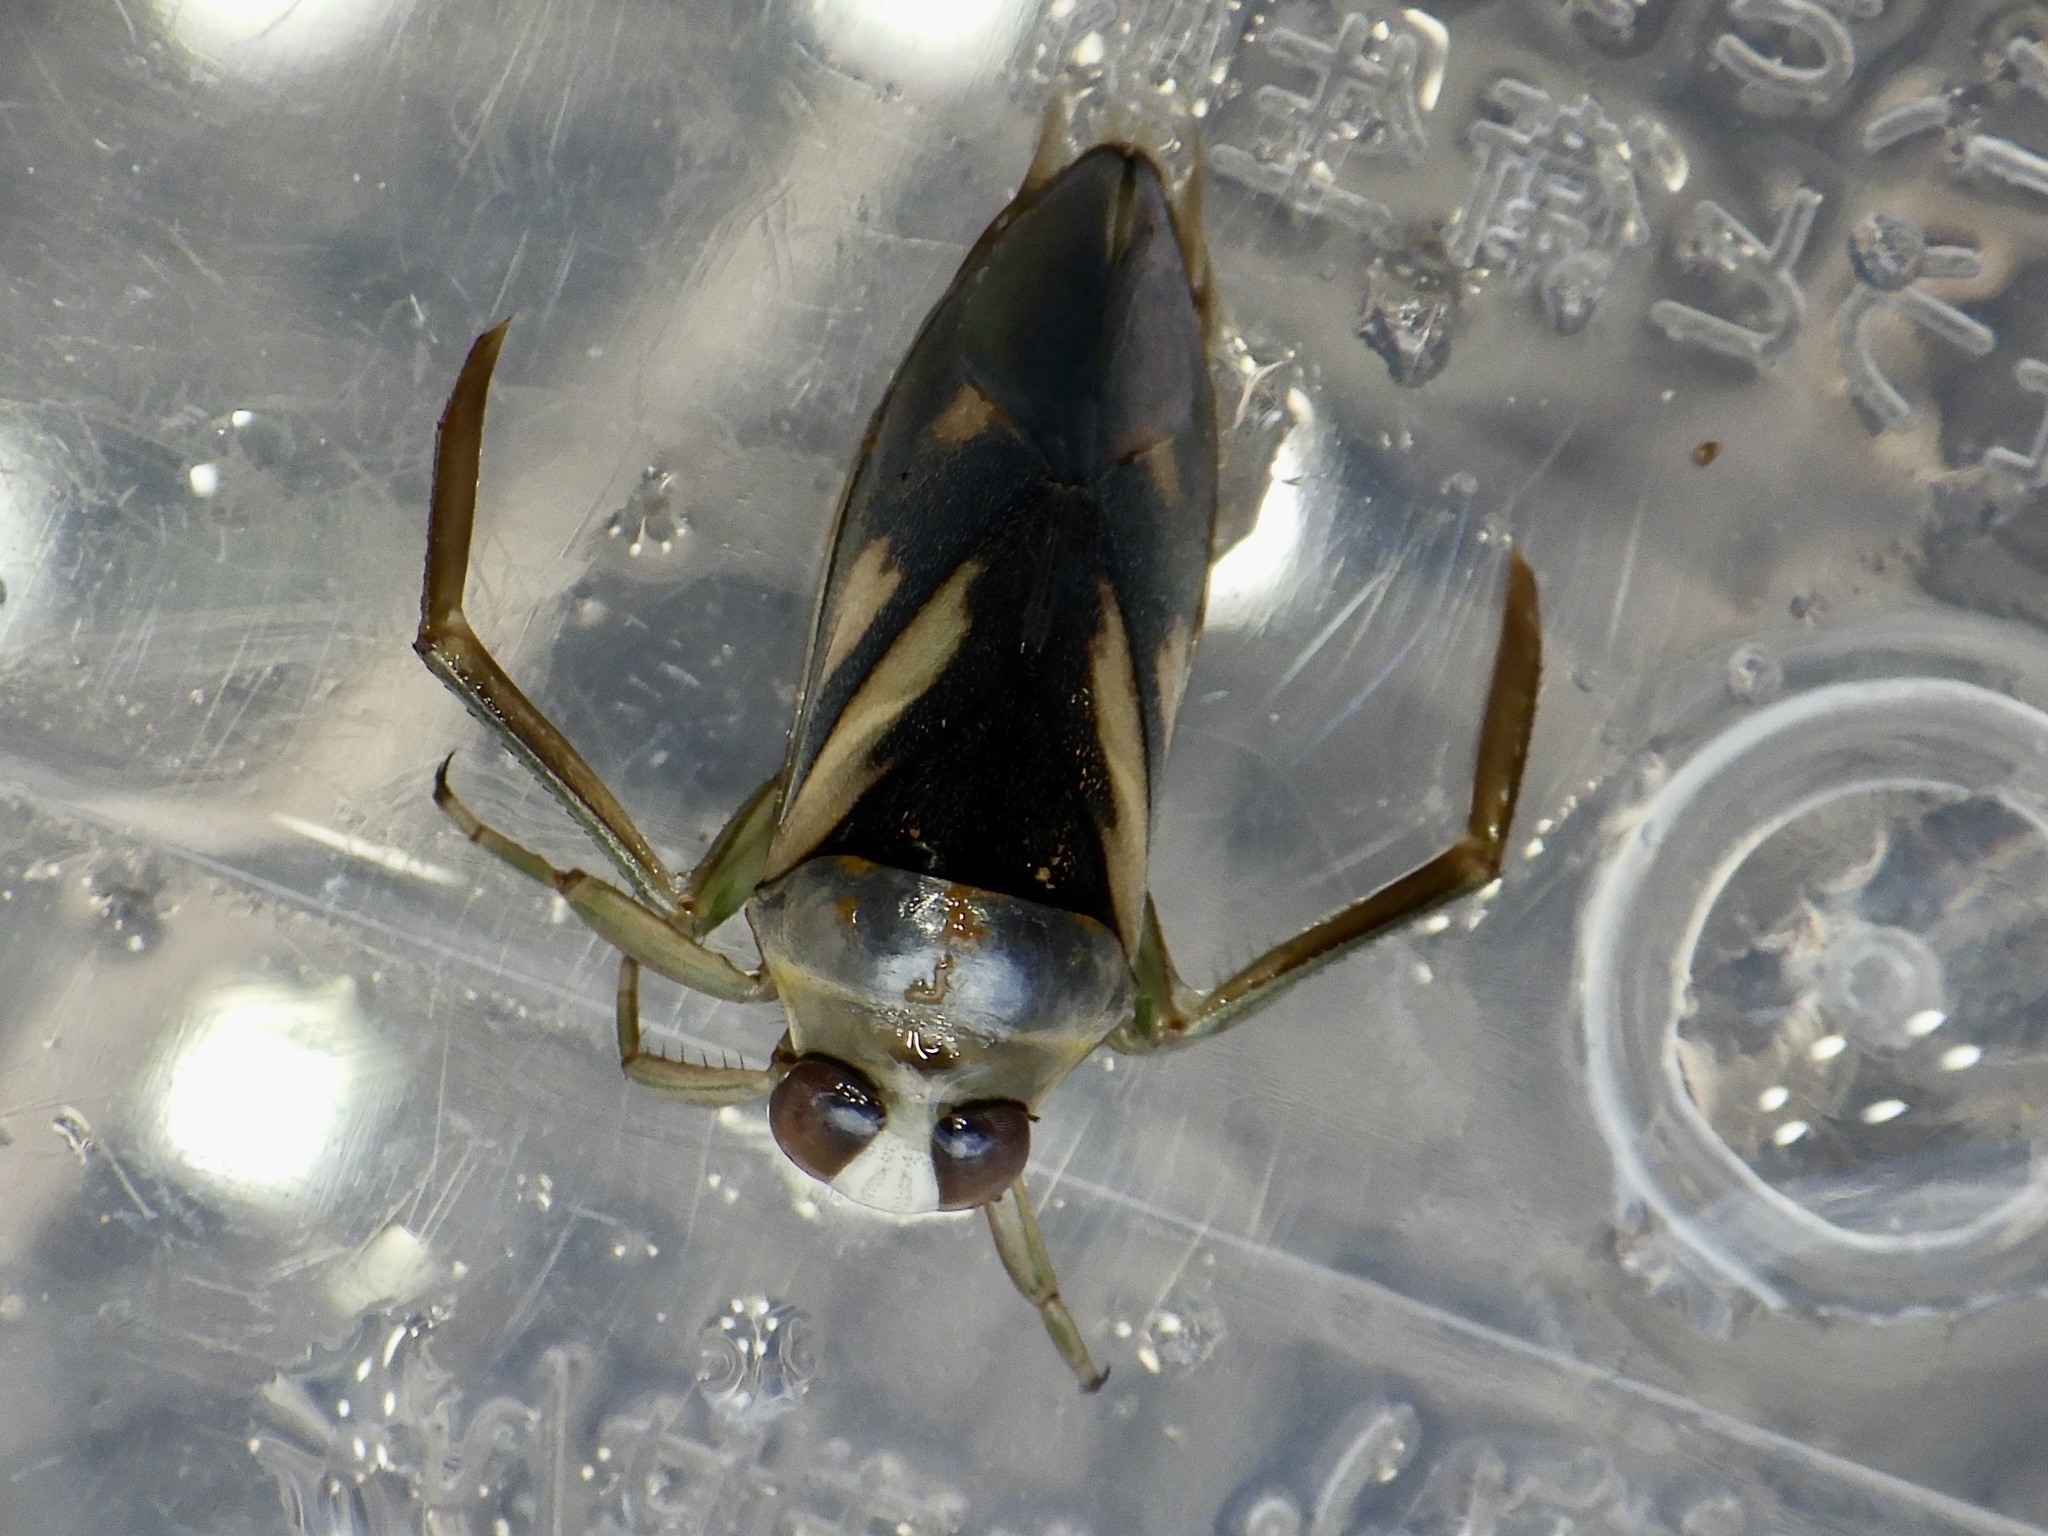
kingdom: Animalia
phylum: Arthropoda
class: Insecta
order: Hemiptera
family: Notonectidae
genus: Notonecta
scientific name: Notonecta triguttata
